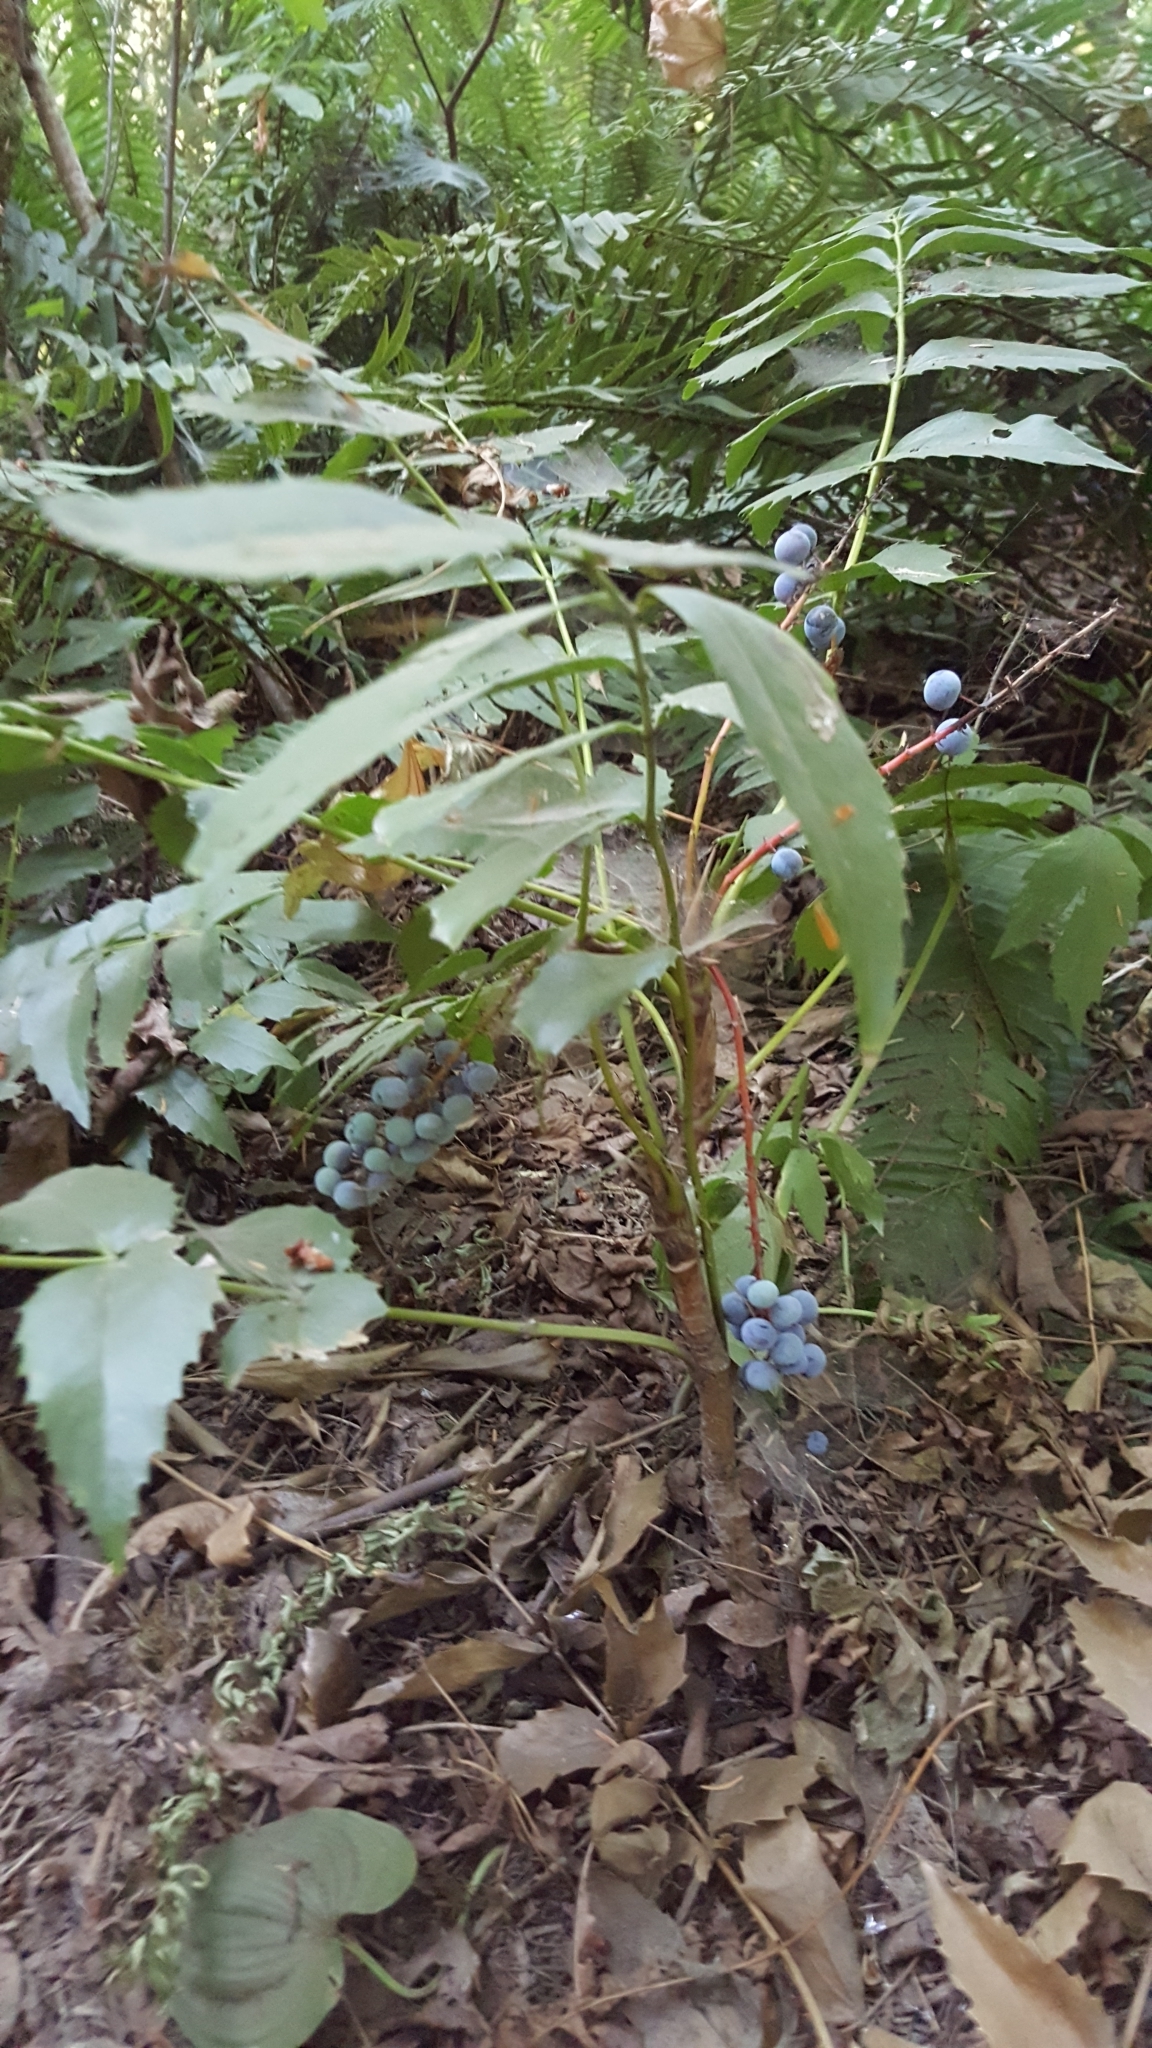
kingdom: Plantae
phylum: Tracheophyta
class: Magnoliopsida
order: Ranunculales
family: Berberidaceae
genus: Mahonia
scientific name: Mahonia nervosa
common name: Cascade oregon-grape
